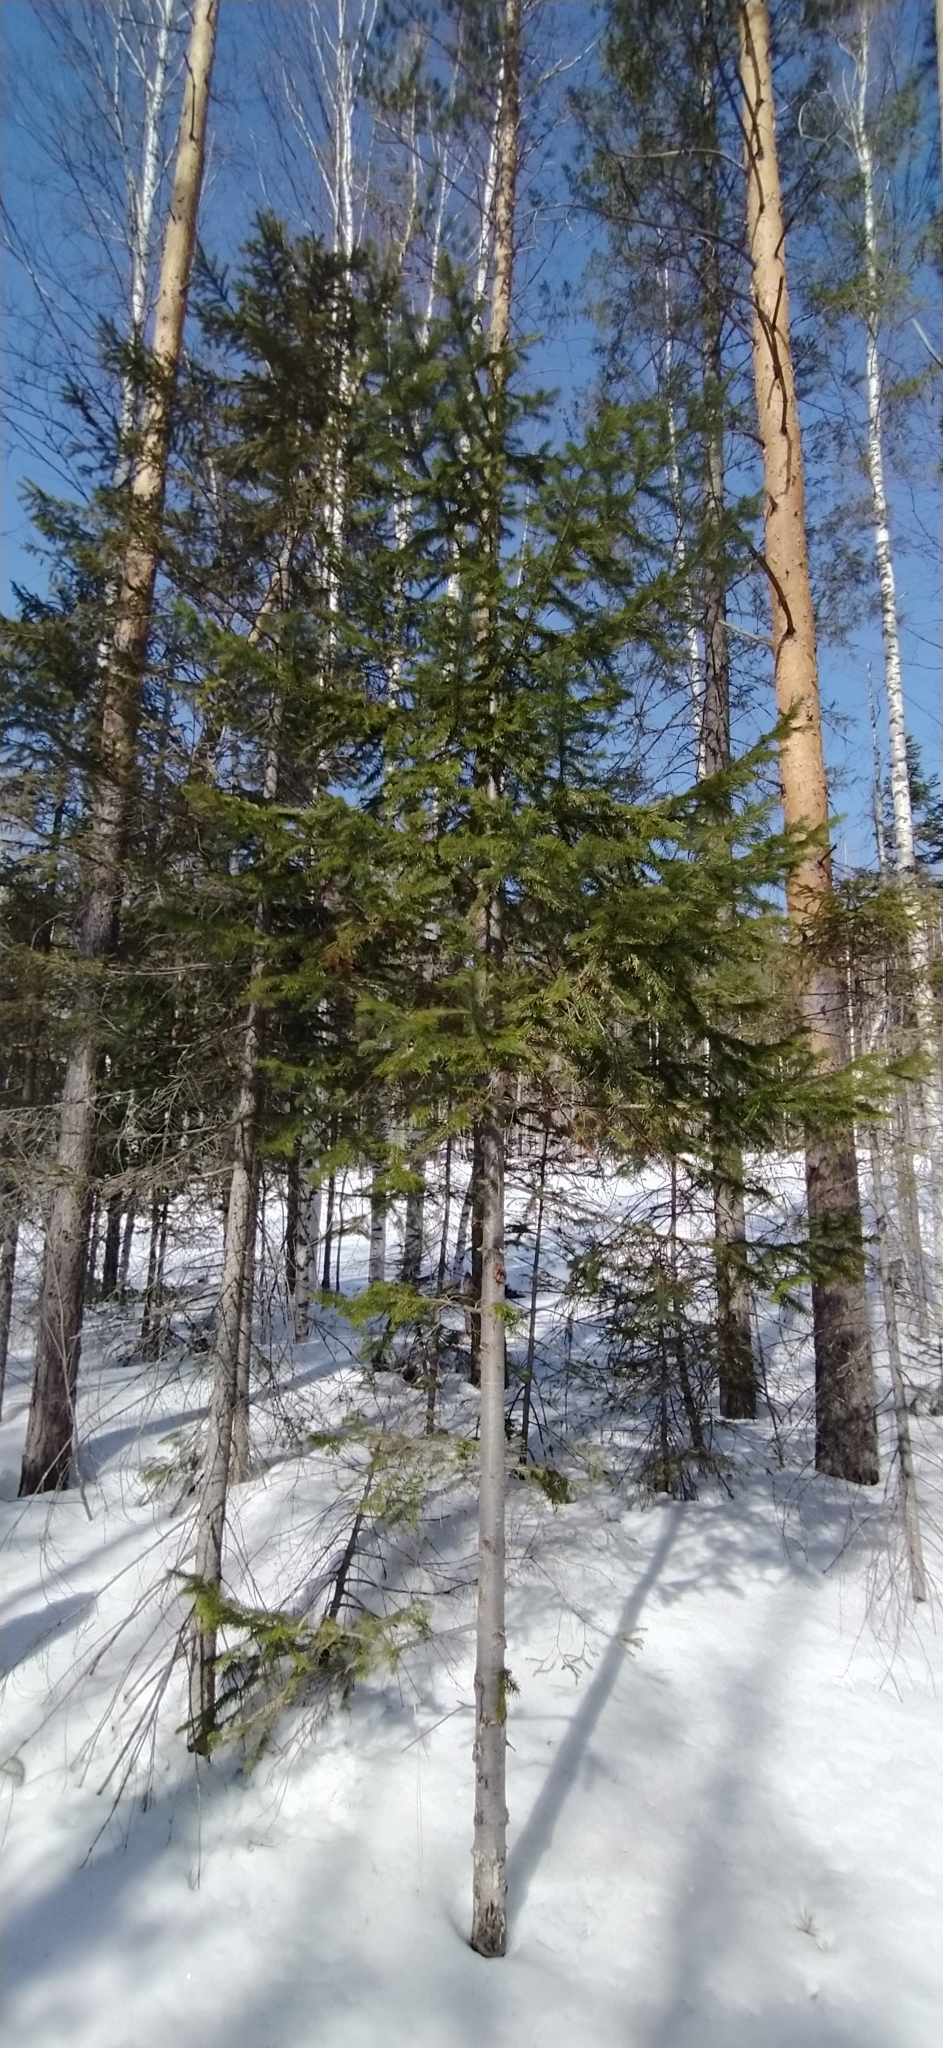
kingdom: Plantae
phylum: Tracheophyta
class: Pinopsida
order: Pinales
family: Pinaceae
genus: Abies
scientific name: Abies sibirica
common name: Siberian fir
